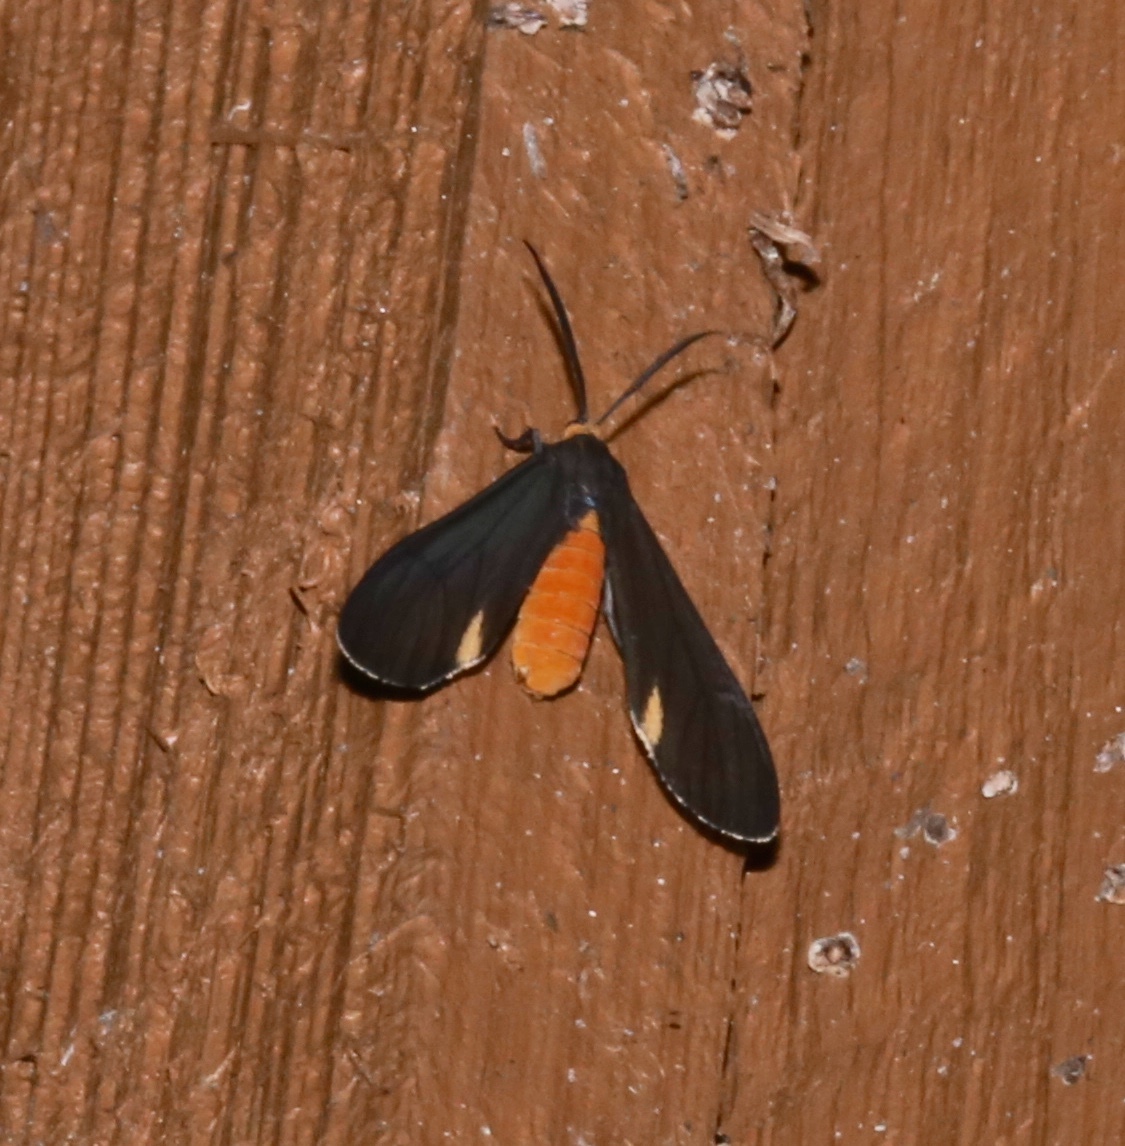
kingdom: Animalia
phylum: Arthropoda
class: Insecta
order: Lepidoptera
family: Erebidae
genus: Dahana
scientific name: Dahana atripennis
